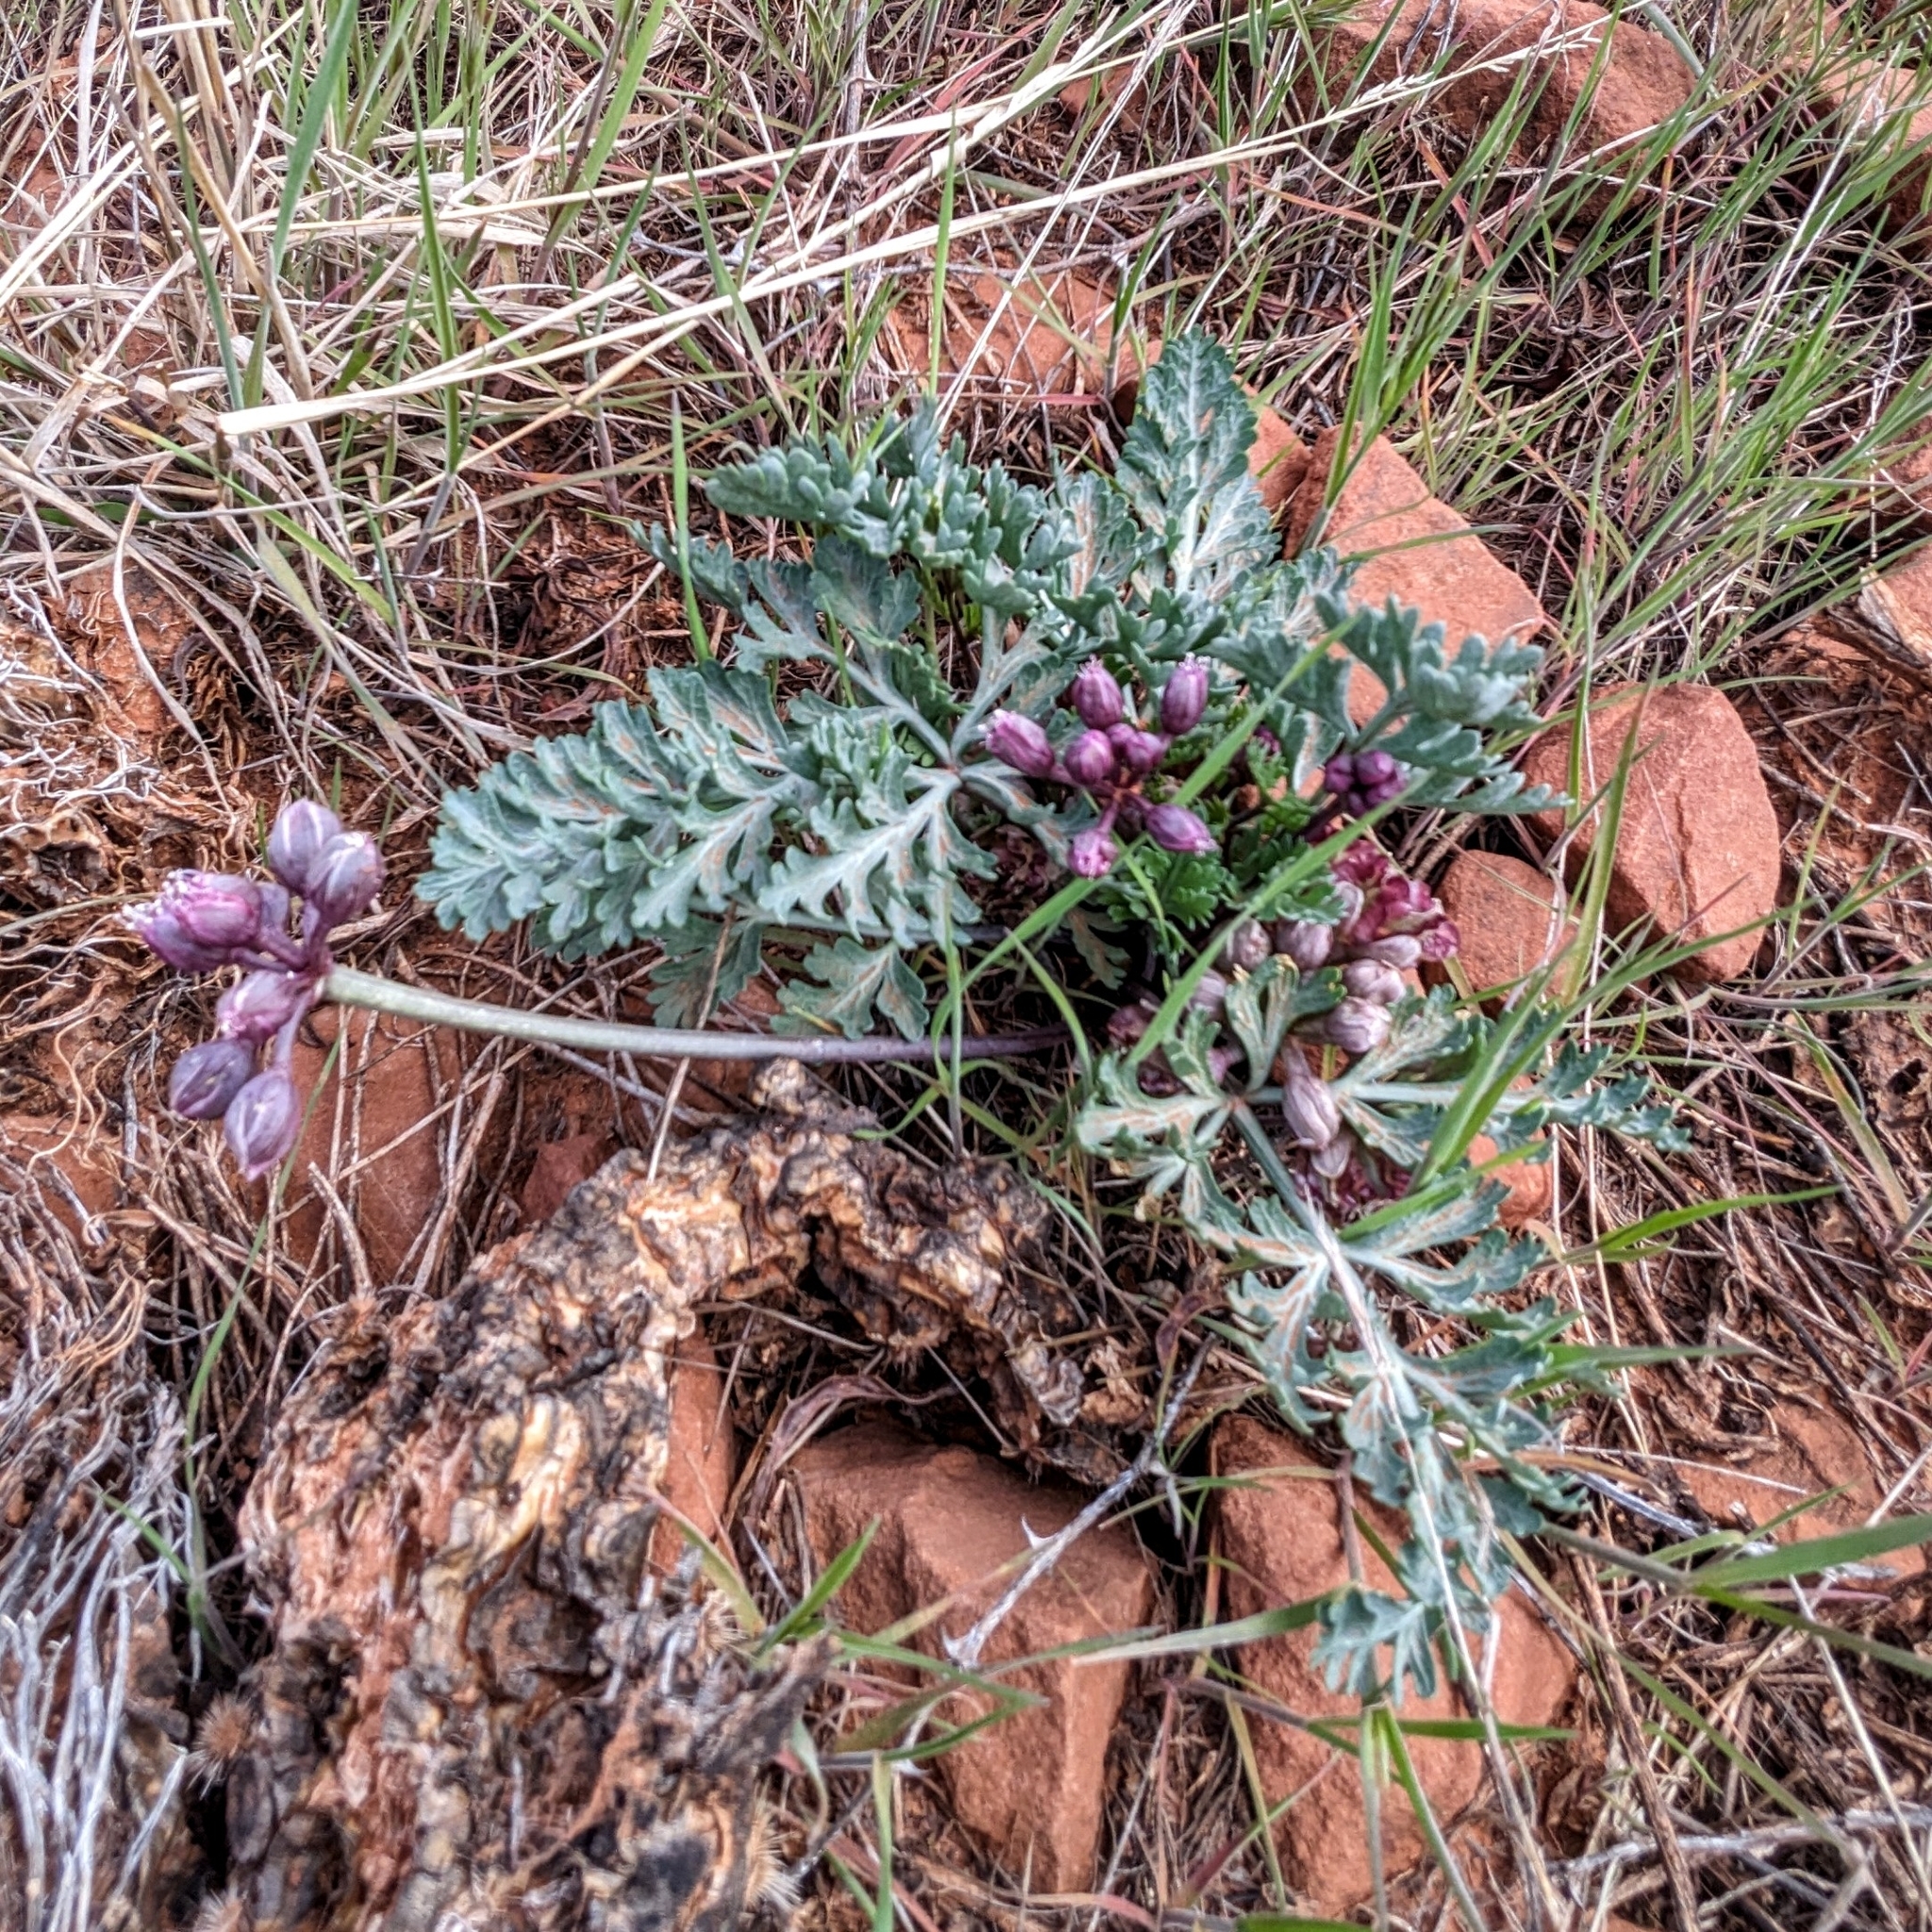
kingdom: Plantae
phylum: Tracheophyta
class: Magnoliopsida
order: Apiales
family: Apiaceae
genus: Vesper
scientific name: Vesper multinervatus
